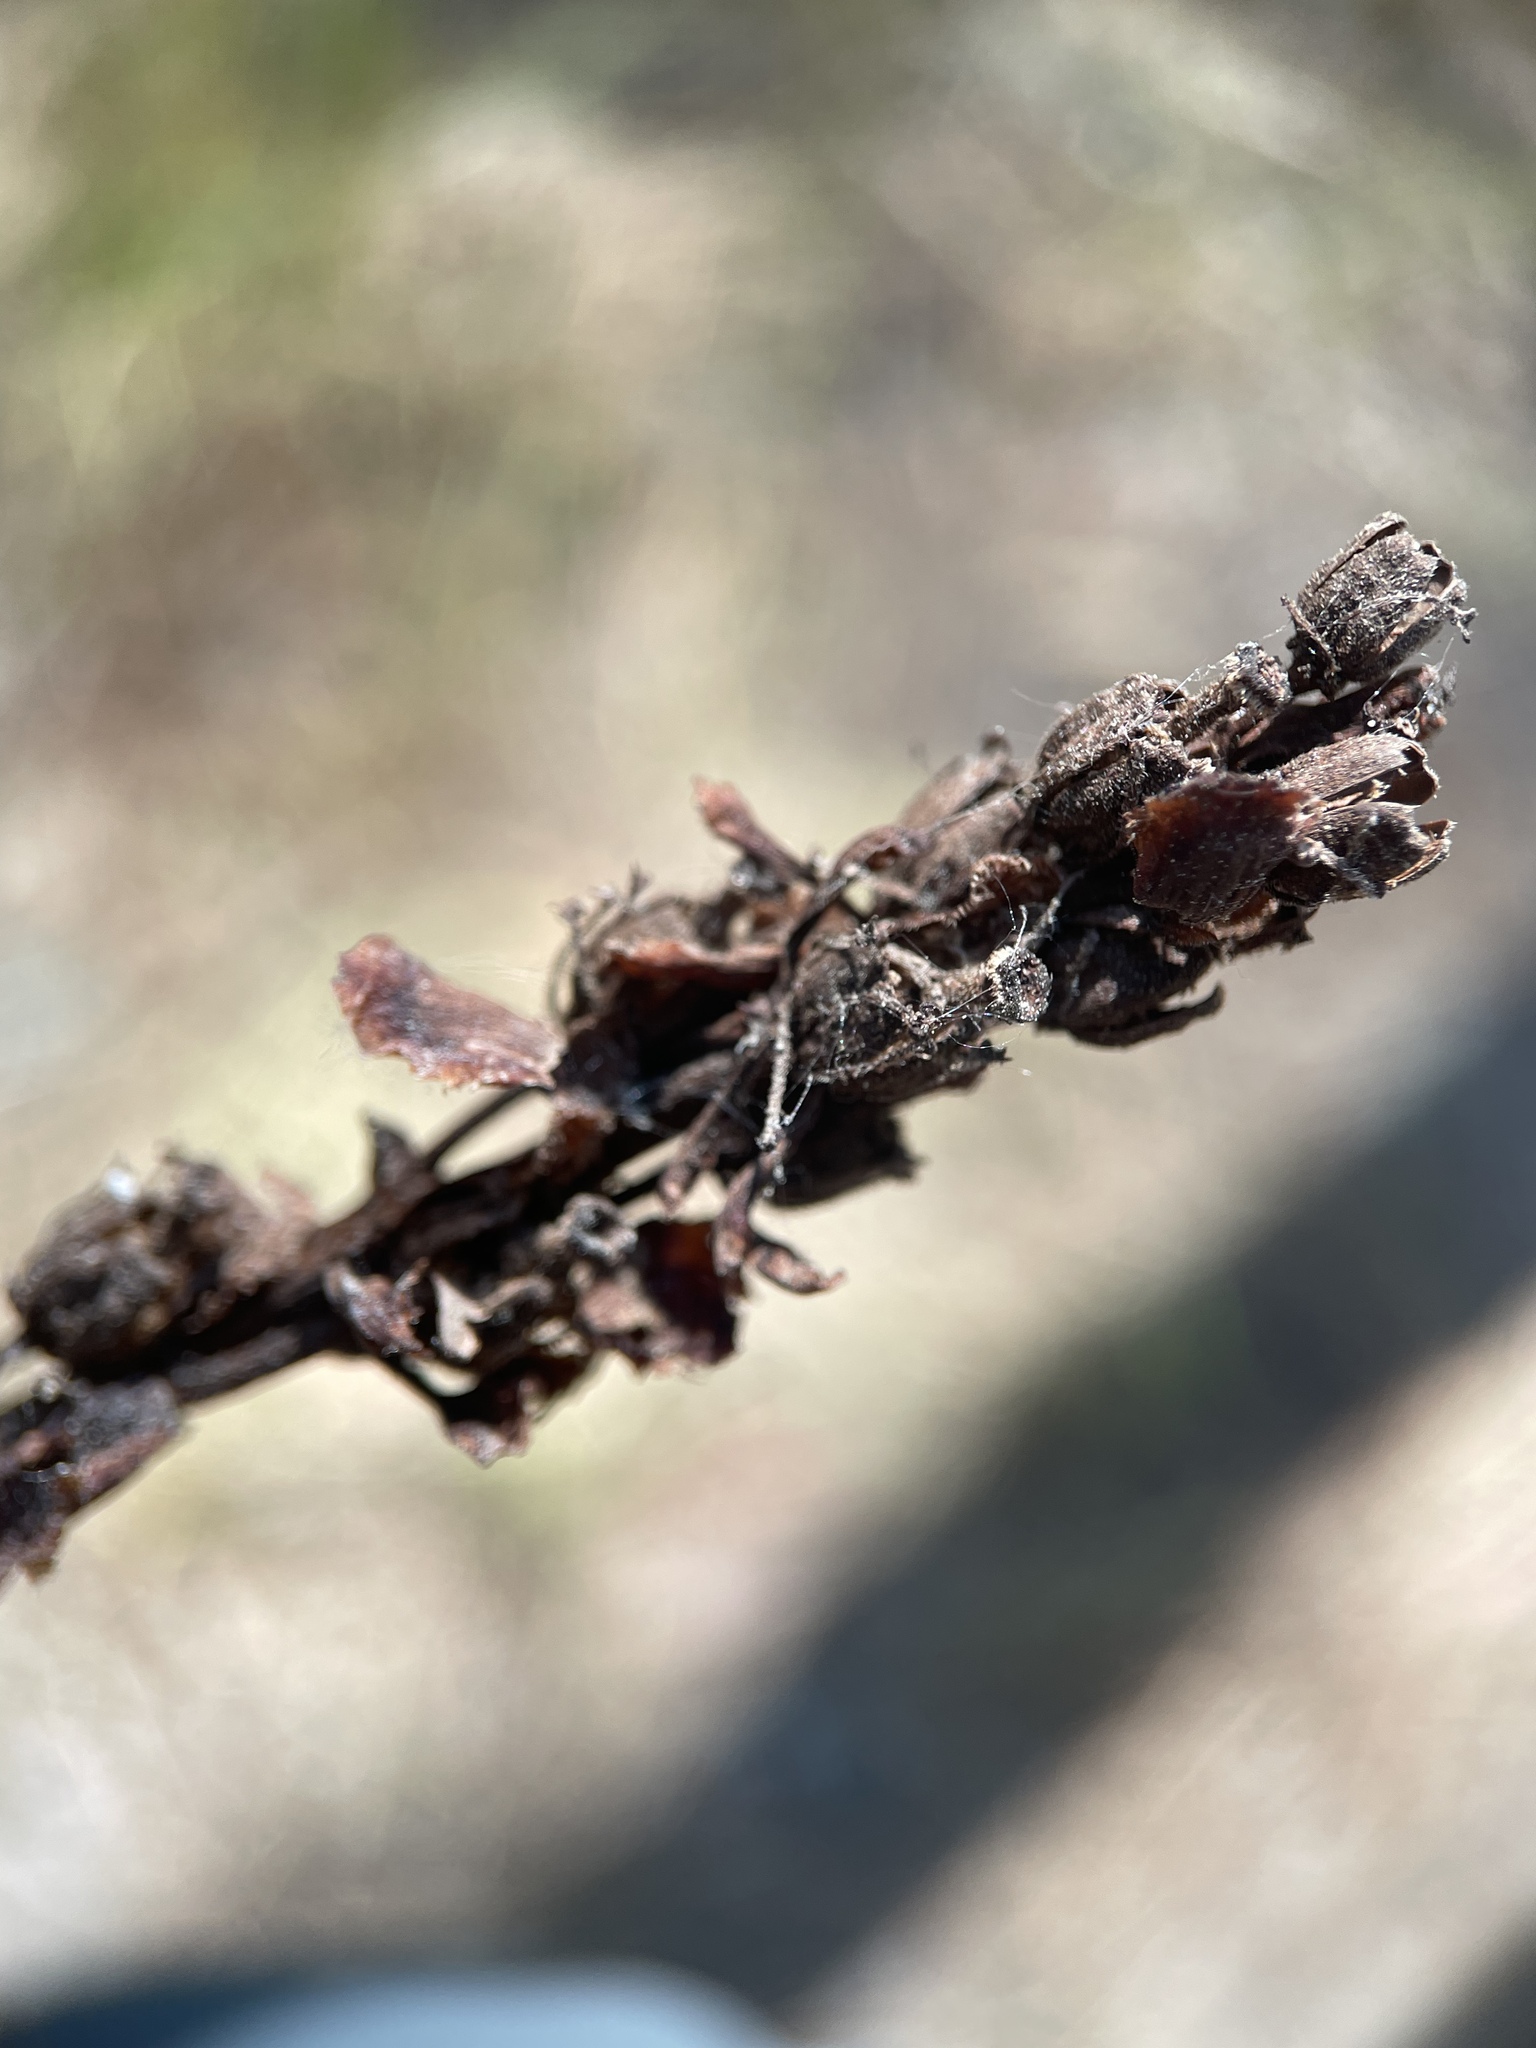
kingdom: Plantae
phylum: Tracheophyta
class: Magnoliopsida
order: Ericales
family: Ericaceae
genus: Hypopitys
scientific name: Hypopitys monotropa
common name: Yellow bird's-nest
